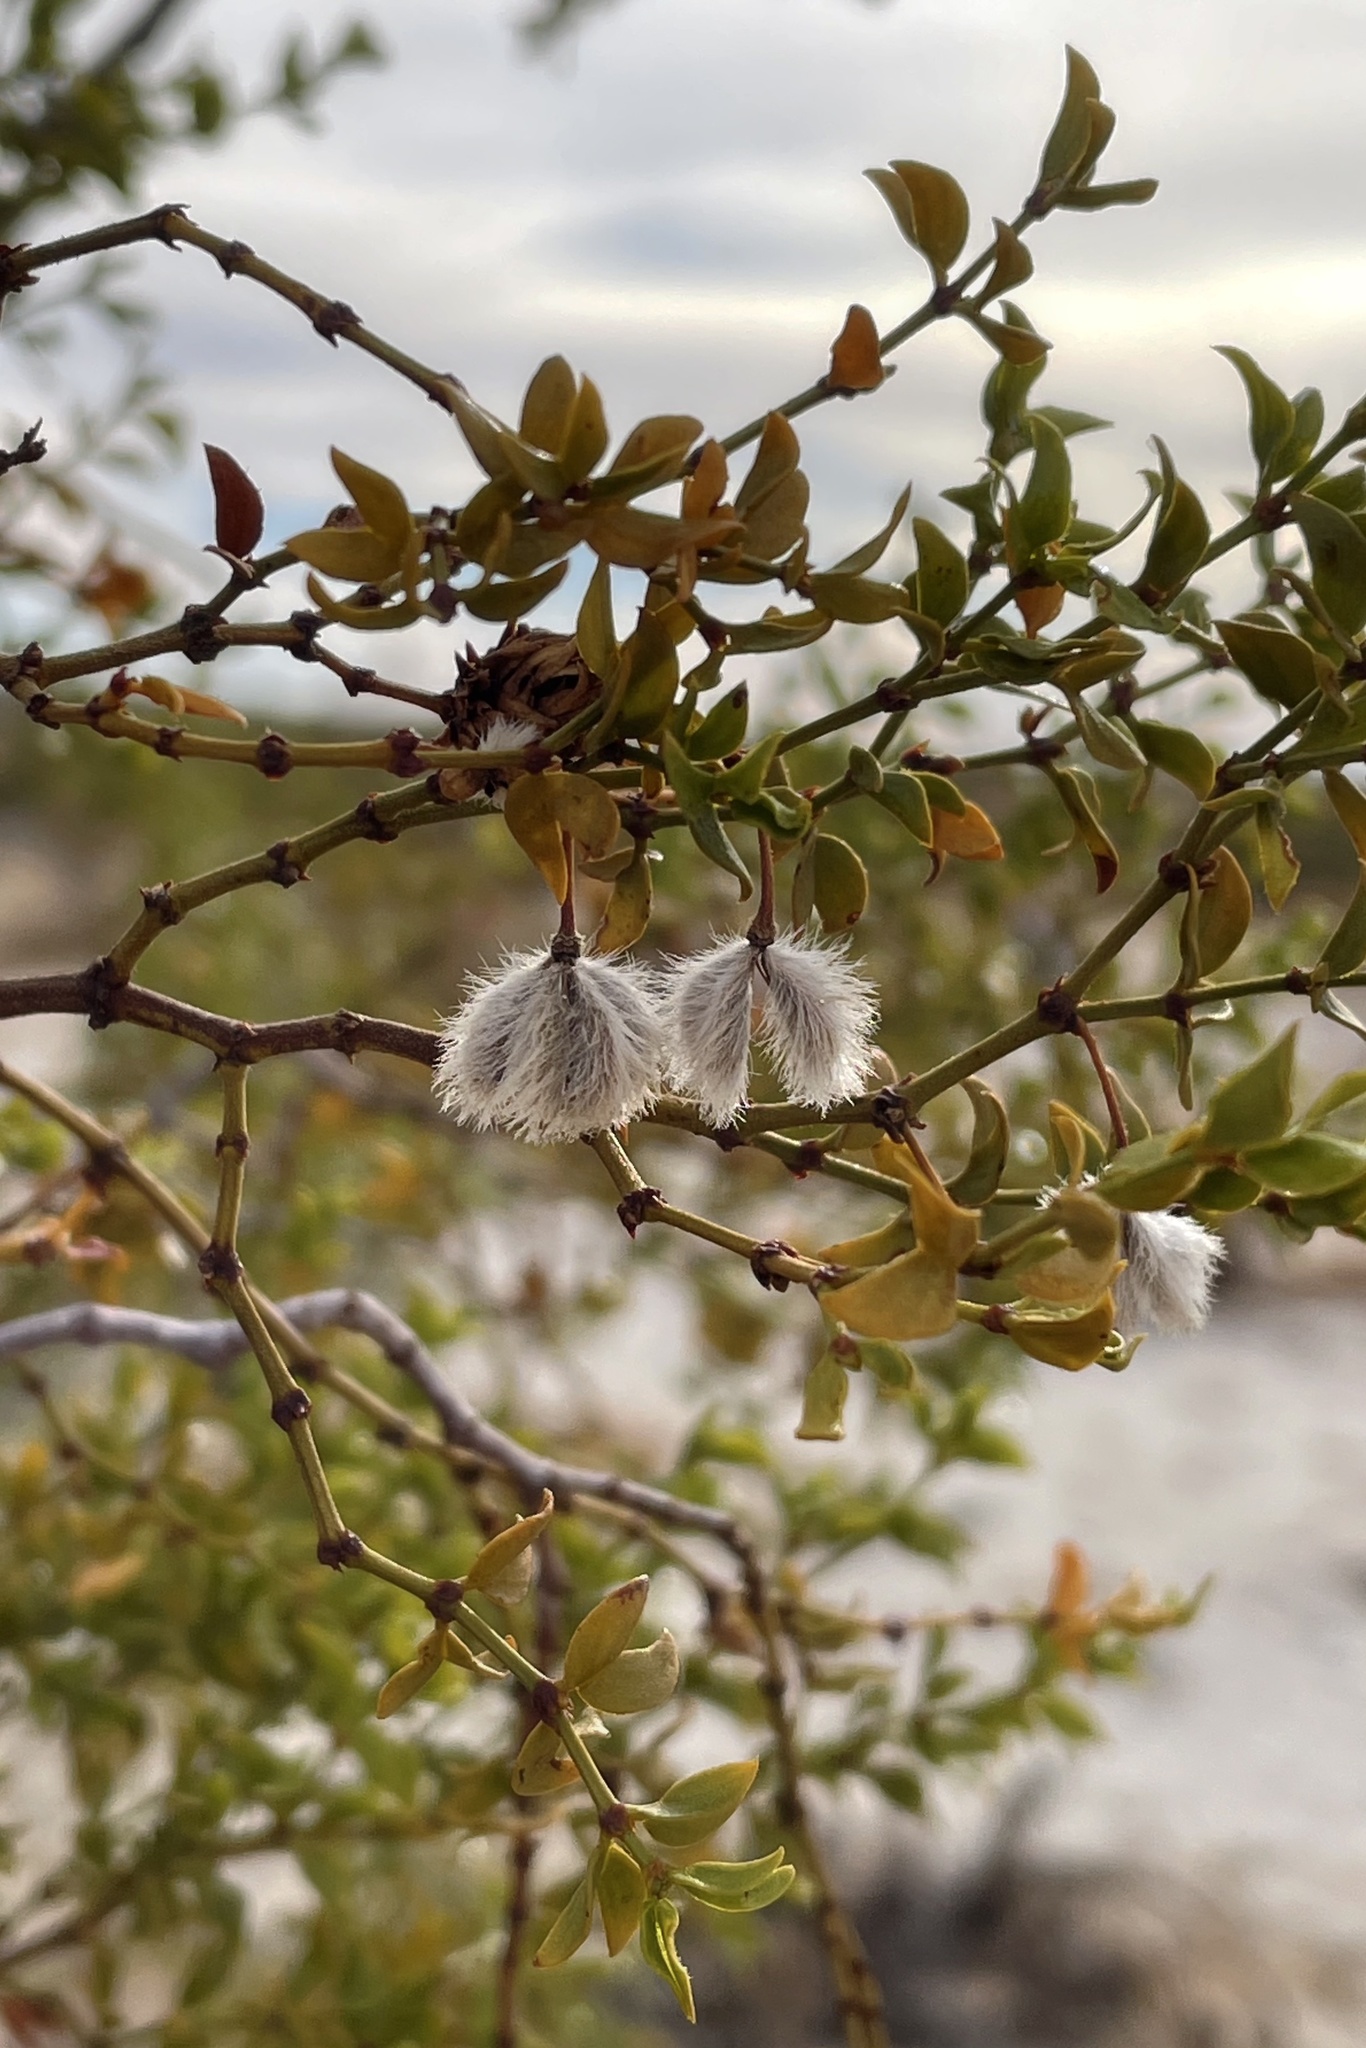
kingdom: Plantae
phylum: Tracheophyta
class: Magnoliopsida
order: Zygophyllales
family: Zygophyllaceae
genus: Larrea
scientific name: Larrea tridentata
